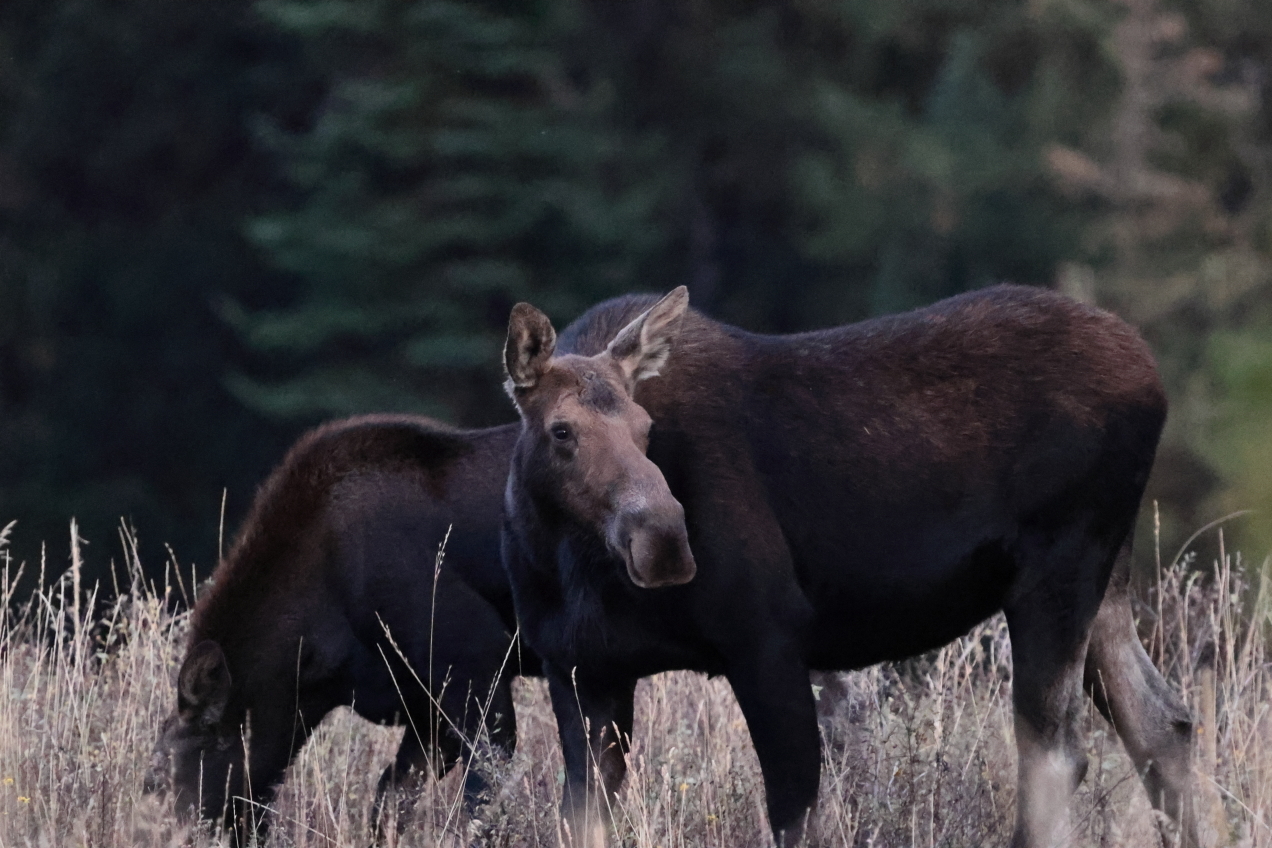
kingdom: Animalia
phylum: Chordata
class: Mammalia
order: Artiodactyla
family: Cervidae
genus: Alces
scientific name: Alces americanus
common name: Moose
